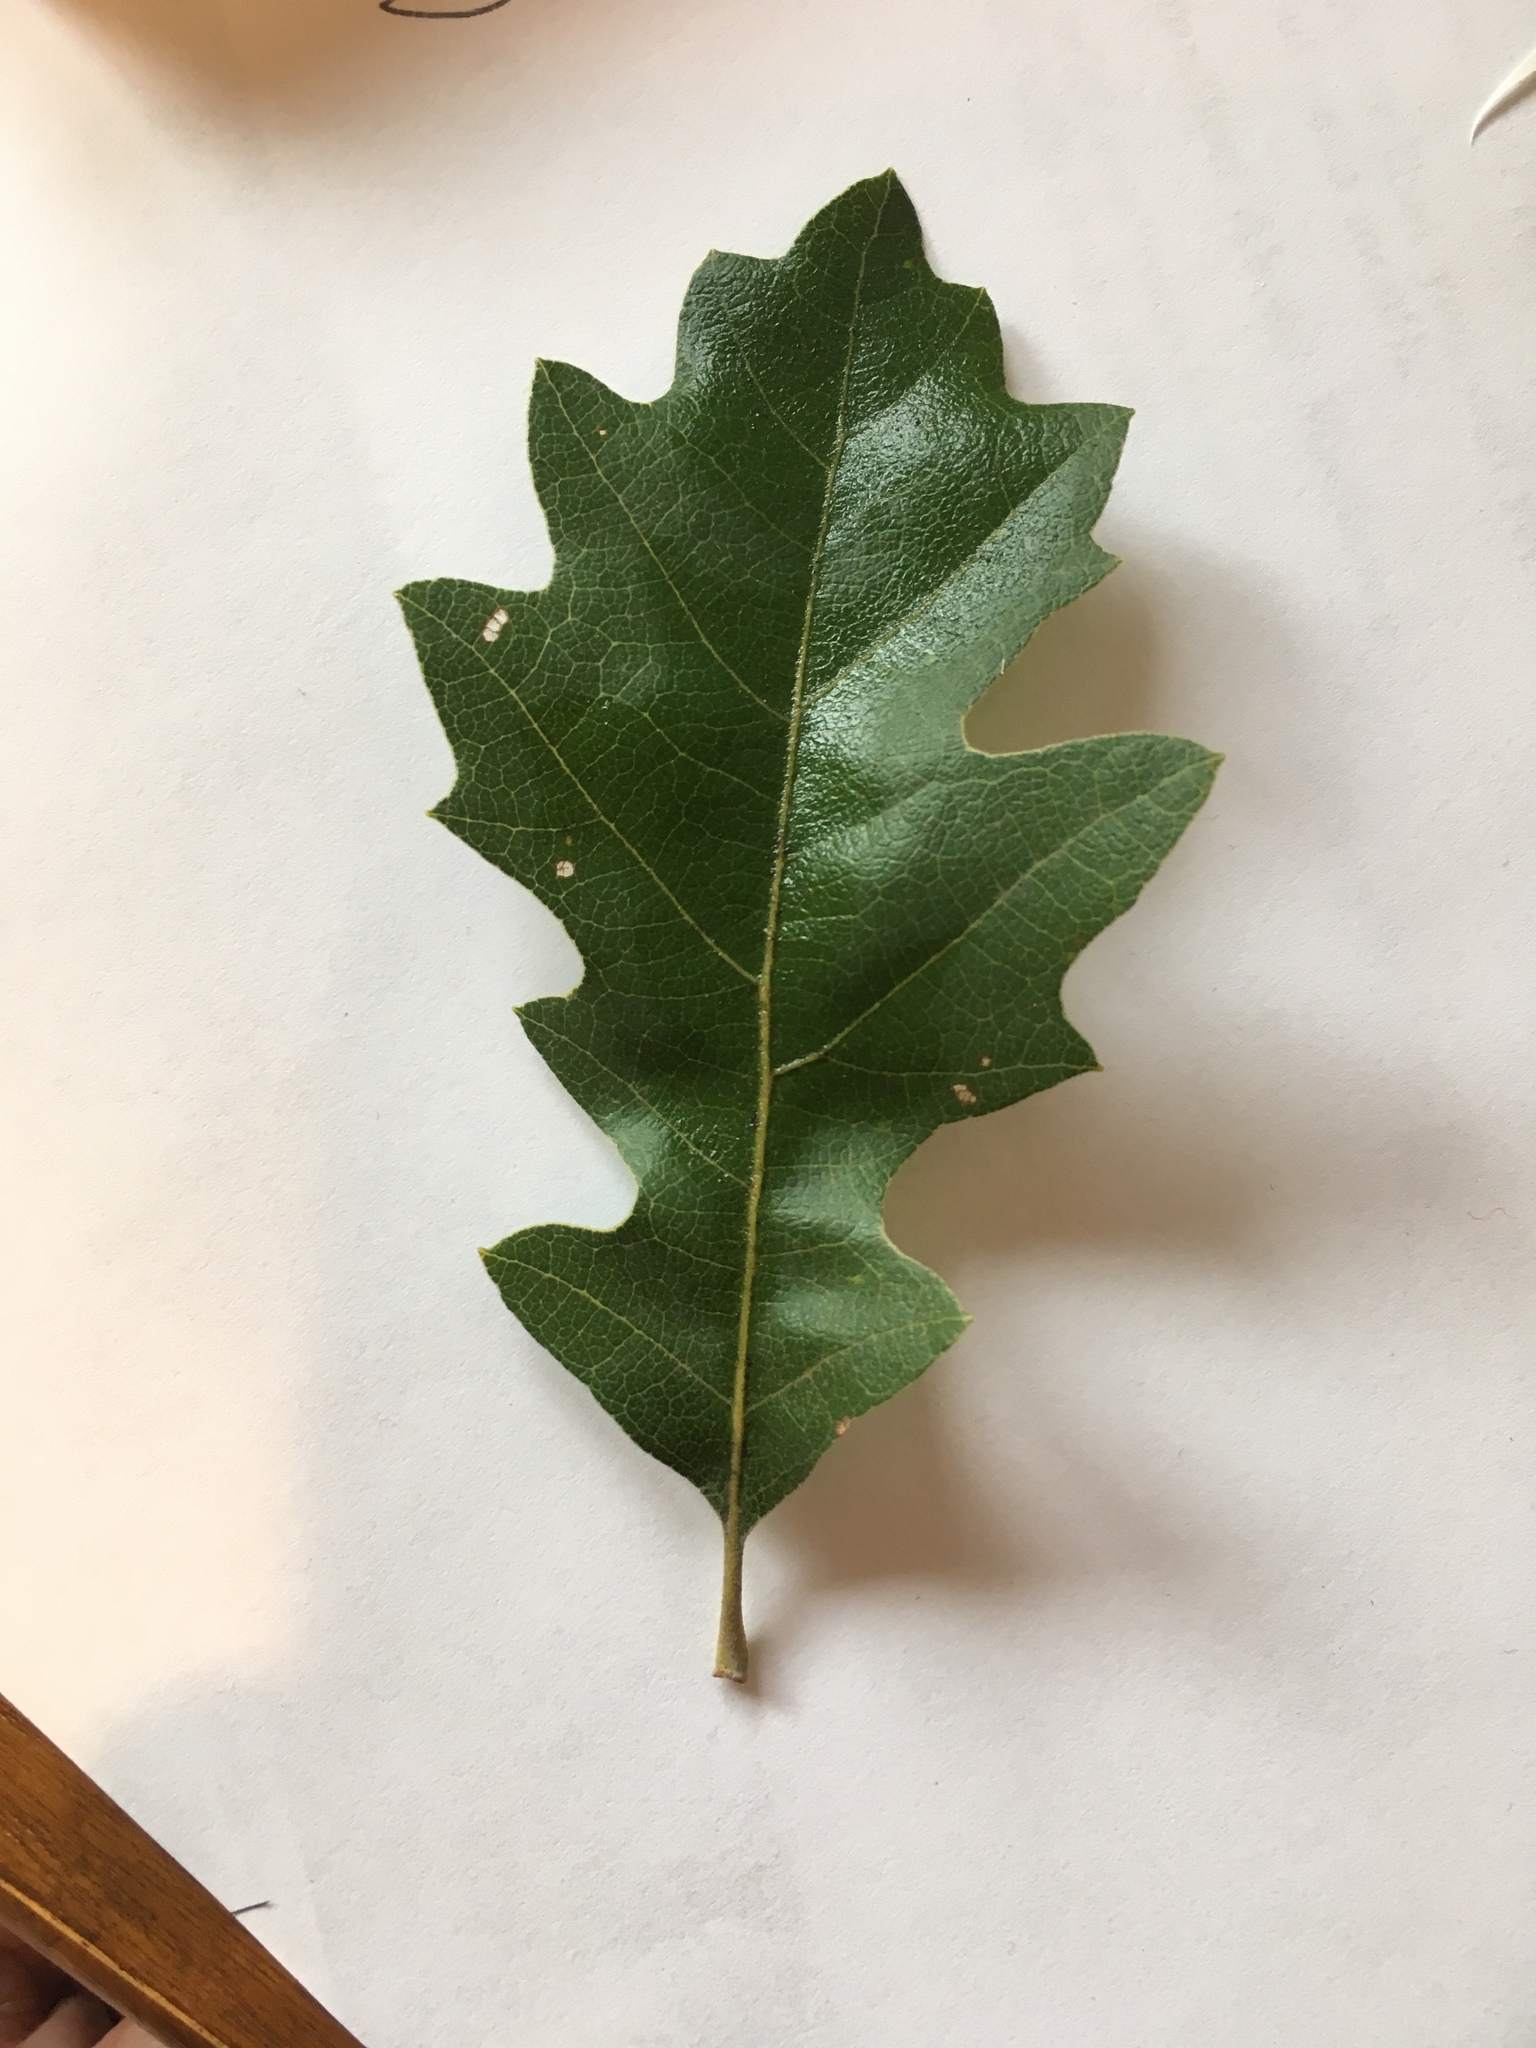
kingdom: Plantae
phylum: Tracheophyta
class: Magnoliopsida
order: Fagales
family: Fagaceae
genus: Quercus
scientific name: Quercus kelloggii
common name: California black oak
